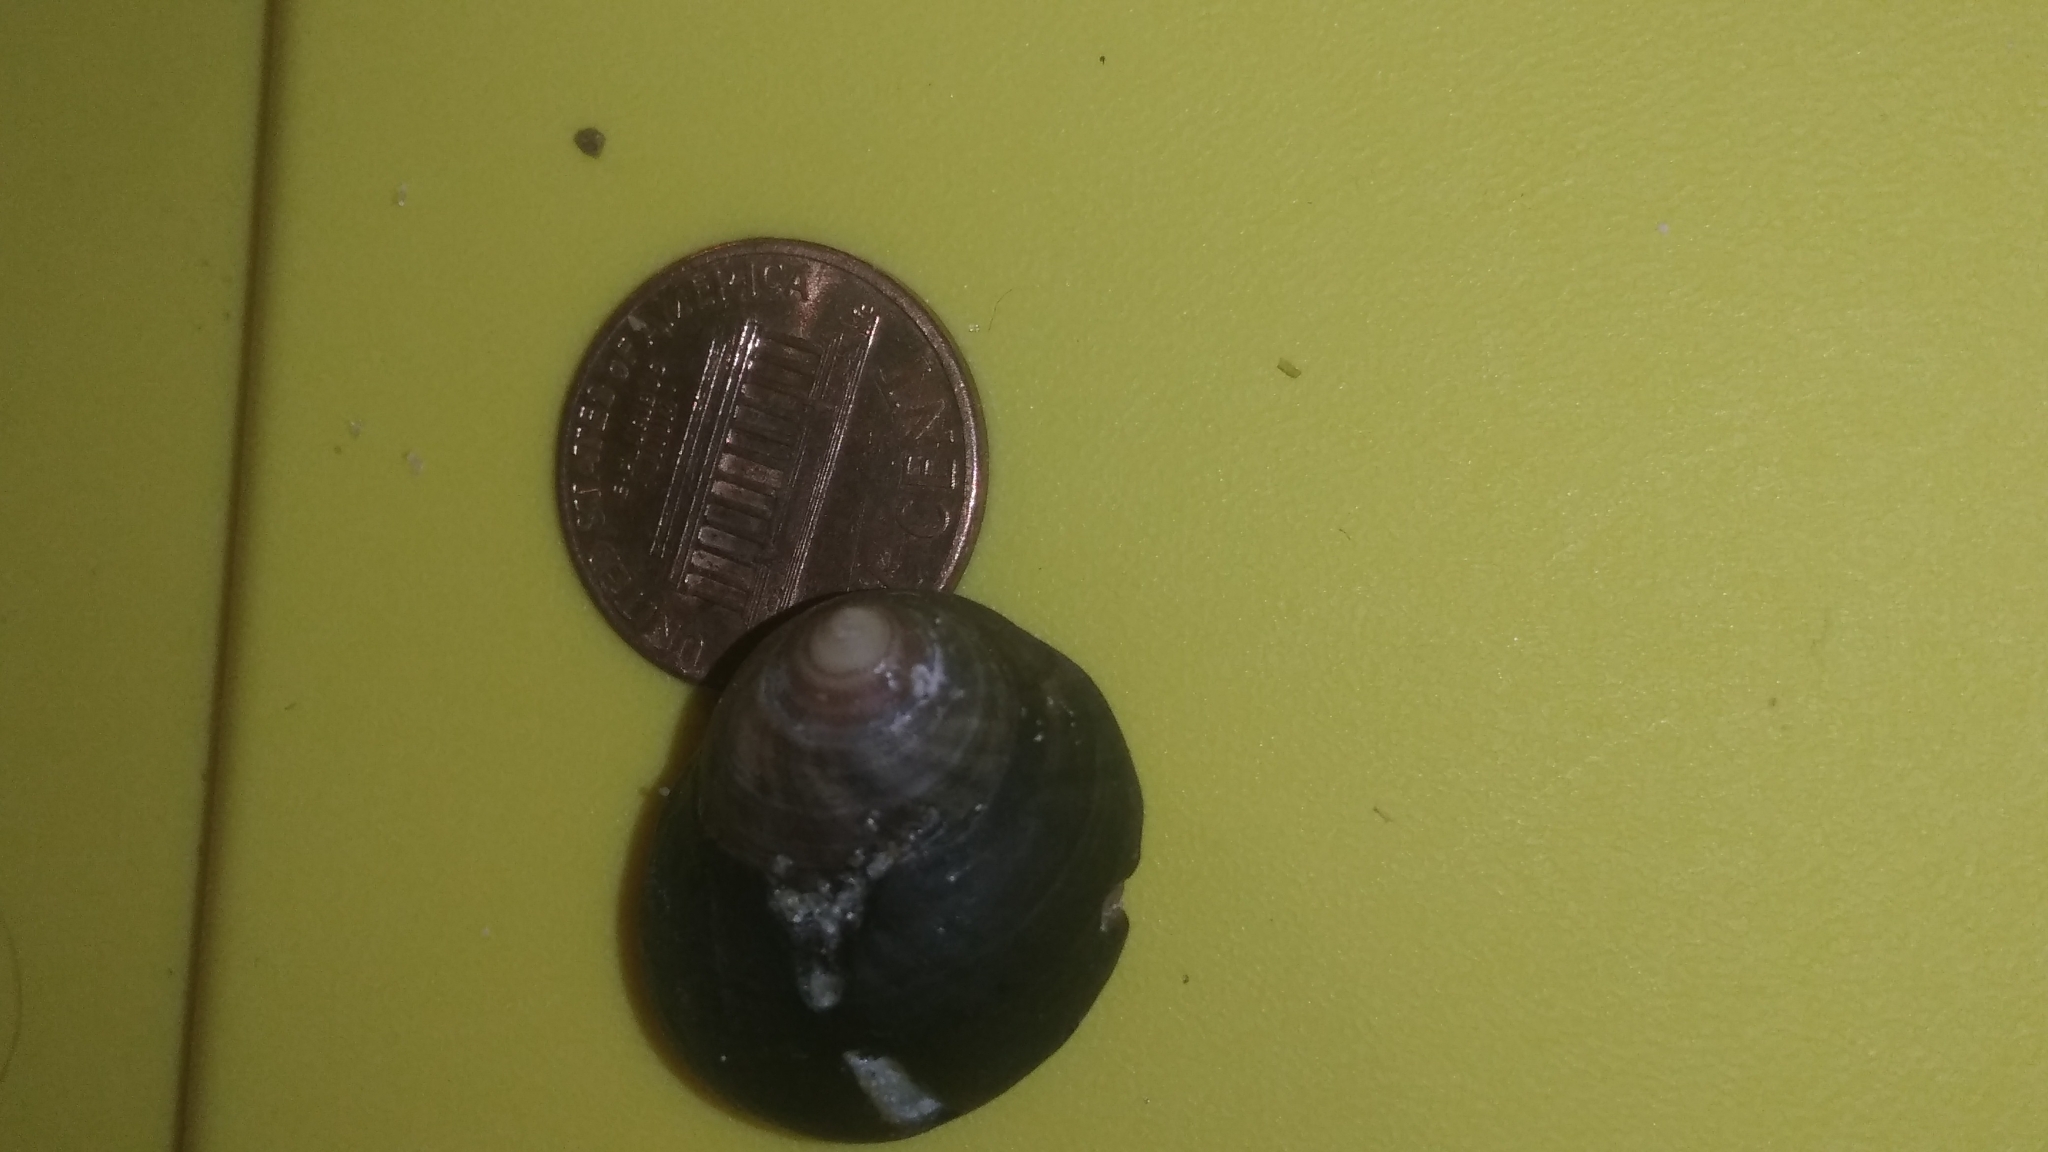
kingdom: Animalia
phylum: Mollusca
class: Gastropoda
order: Littorinimorpha
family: Littorinidae
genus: Littorina
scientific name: Littorina littorea
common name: Common periwinkle
